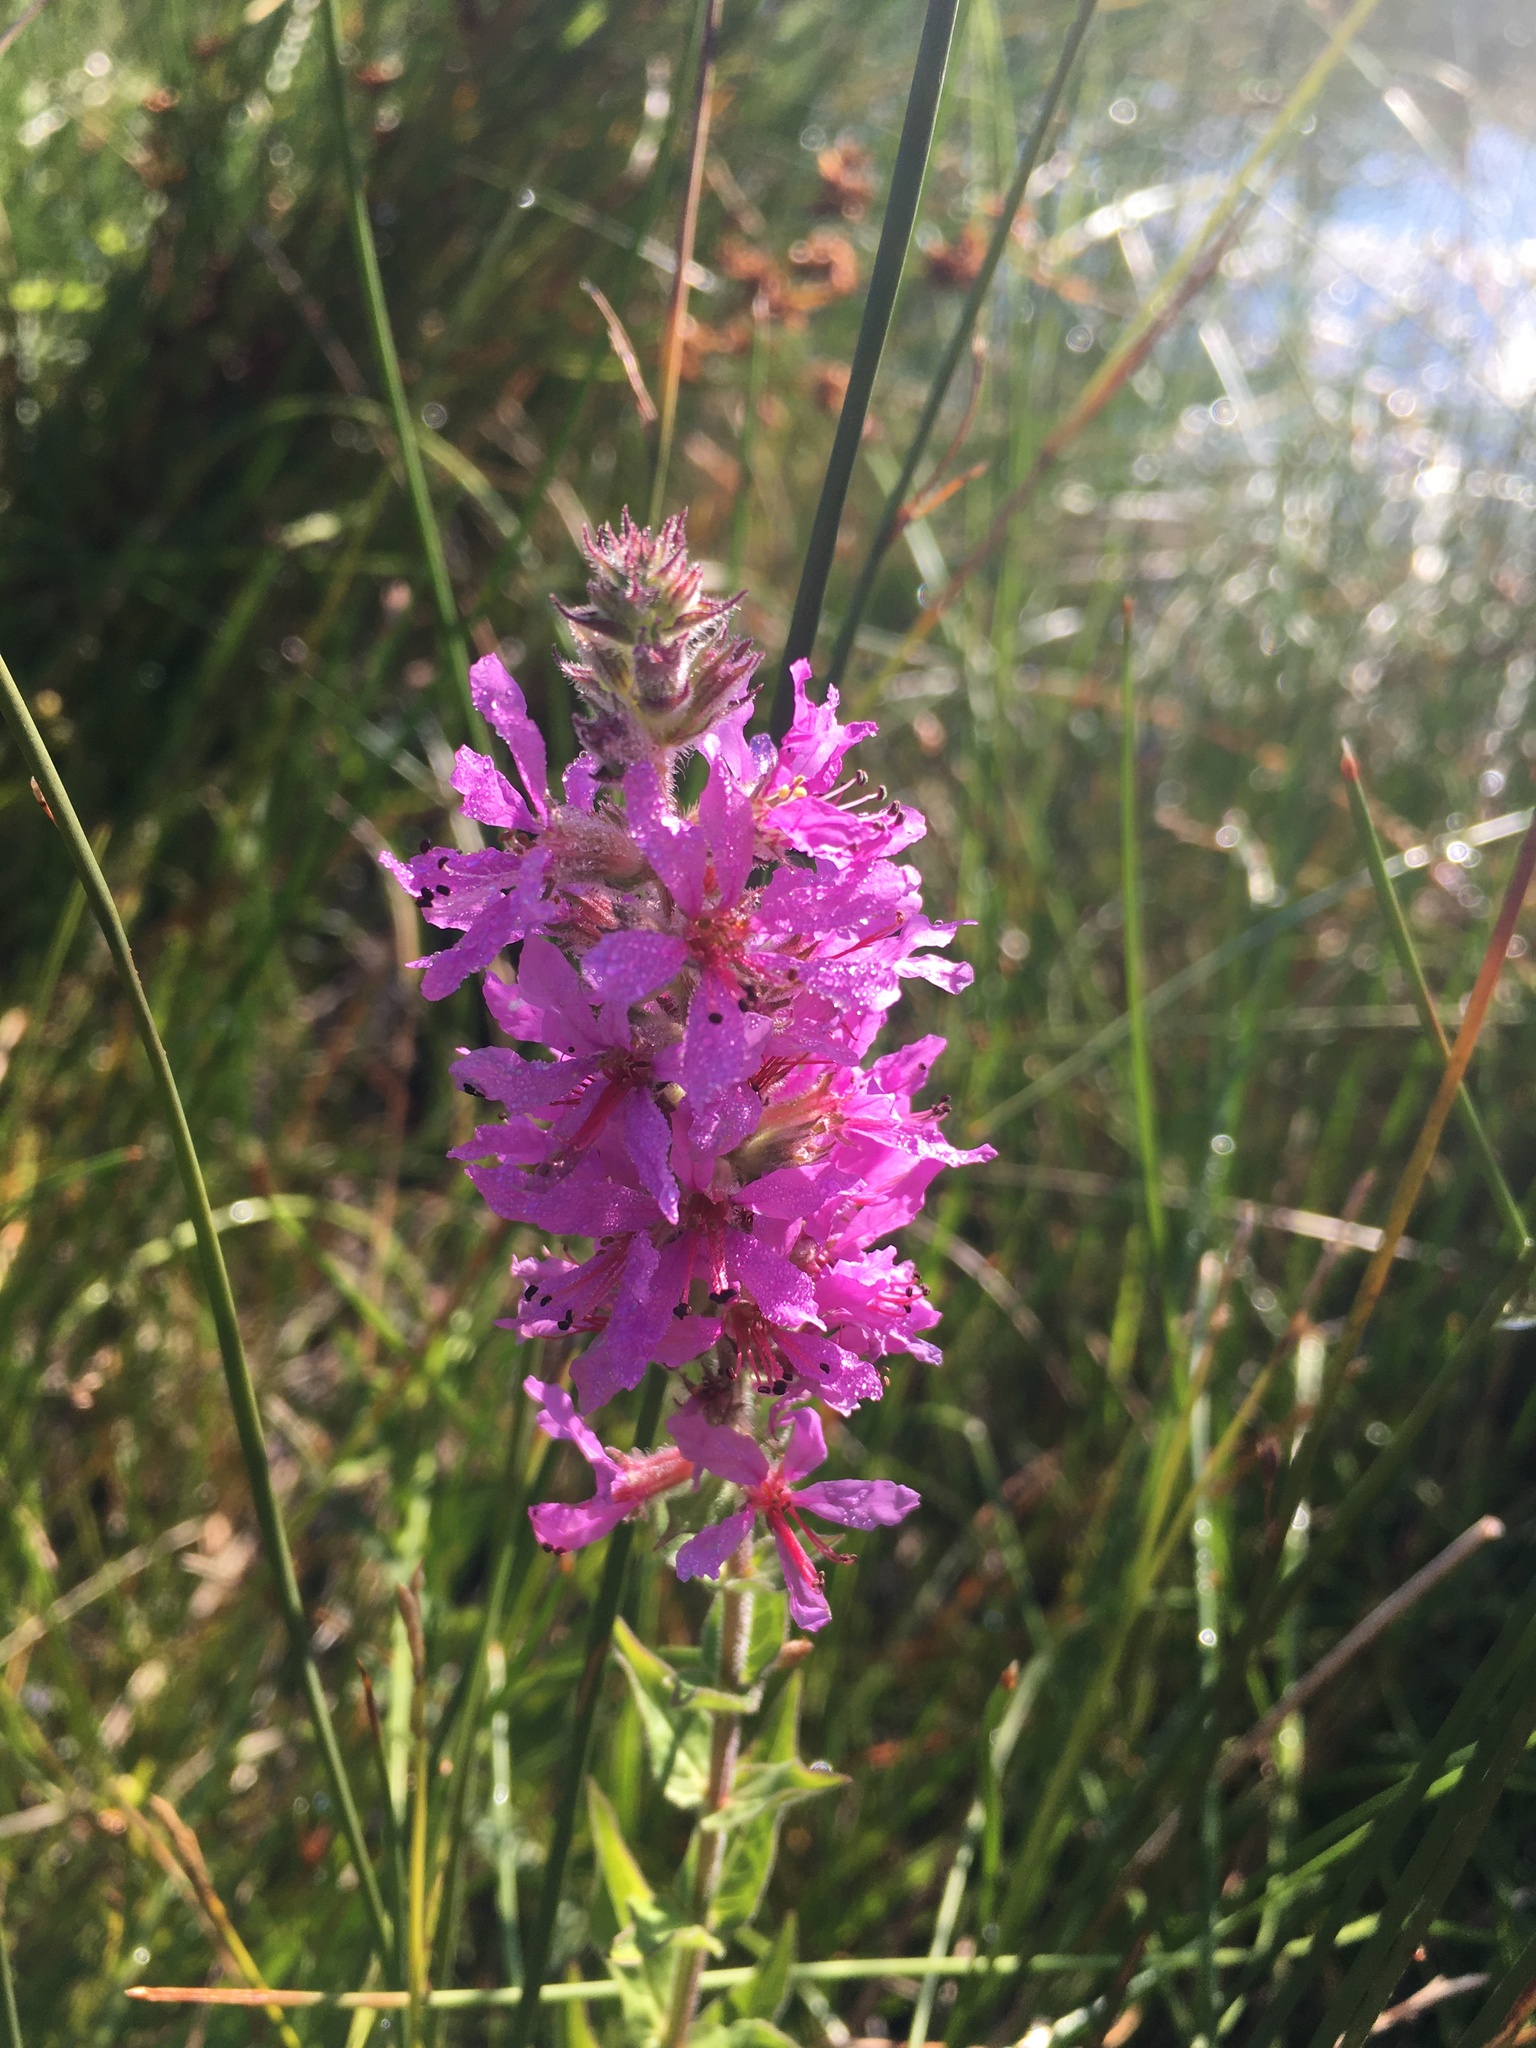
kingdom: Plantae
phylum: Tracheophyta
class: Magnoliopsida
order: Myrtales
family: Lythraceae
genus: Lythrum
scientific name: Lythrum salicaria
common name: Purple loosestrife
